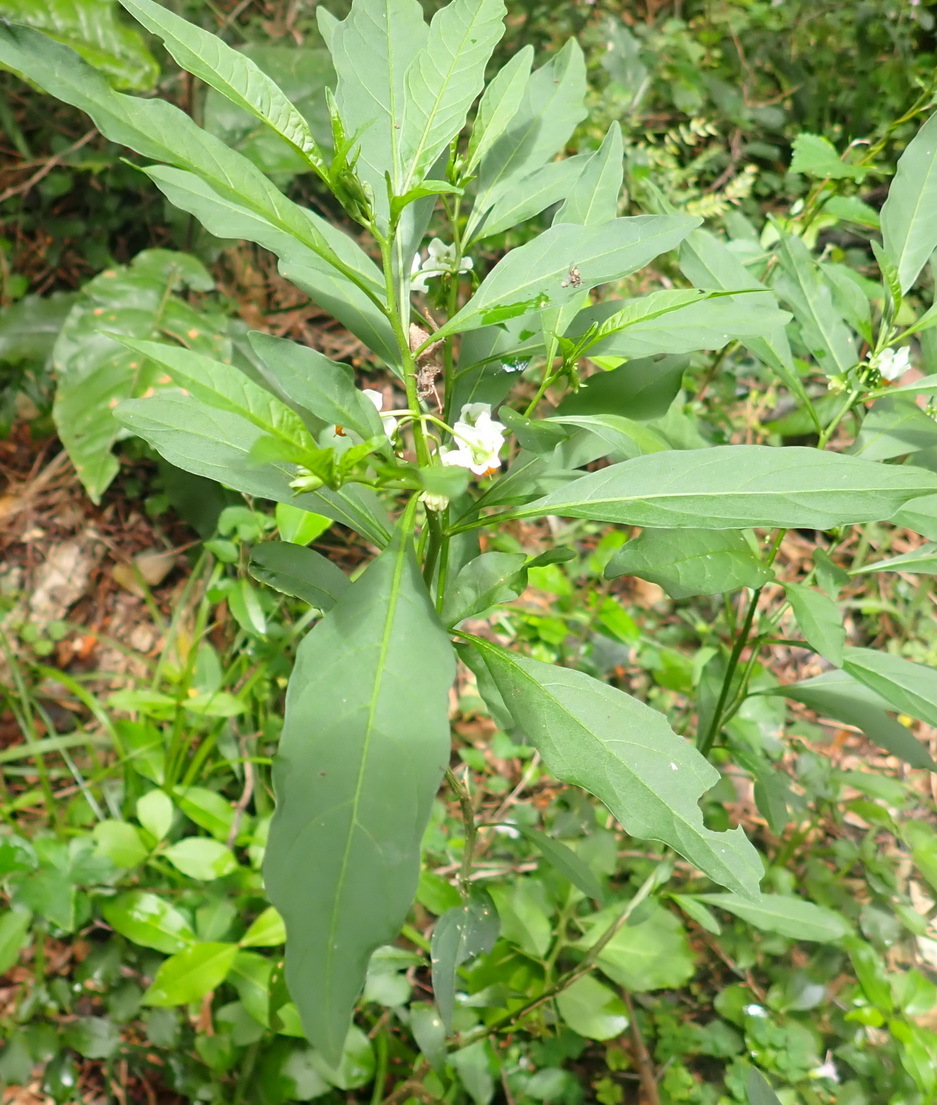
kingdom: Plantae
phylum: Tracheophyta
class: Magnoliopsida
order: Solanales
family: Solanaceae
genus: Solanum
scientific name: Solanum pseudocapsicum
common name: Jerusalem cherry
